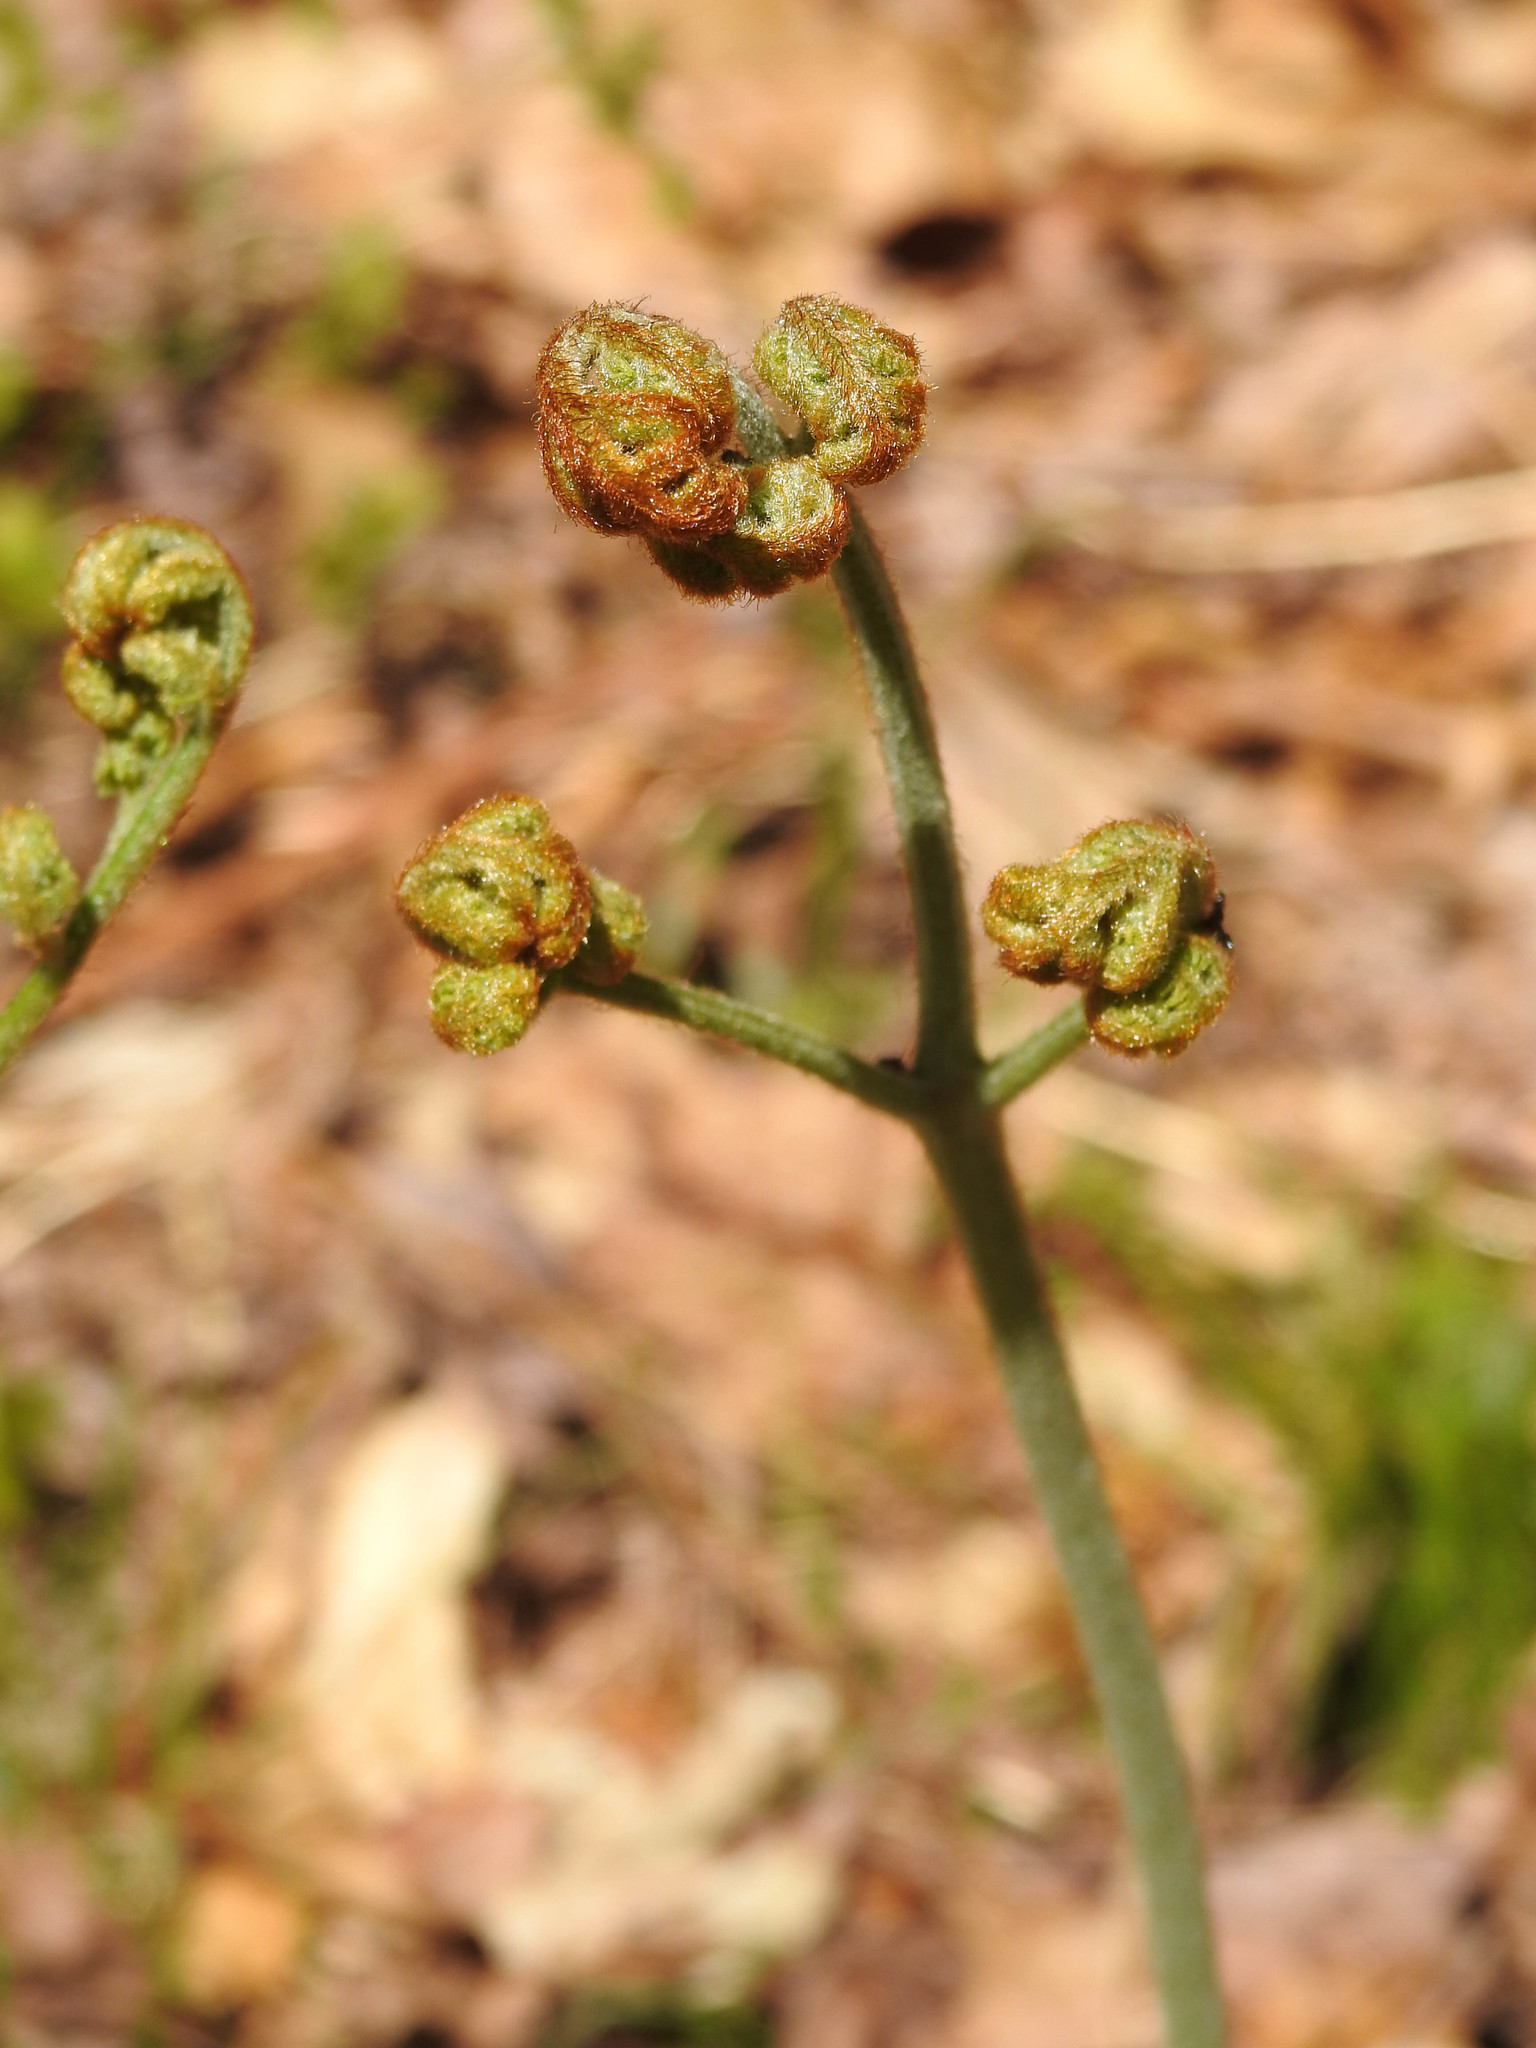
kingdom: Plantae
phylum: Tracheophyta
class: Polypodiopsida
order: Polypodiales
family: Dennstaedtiaceae
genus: Pteridium
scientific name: Pteridium aquilinum
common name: Bracken
